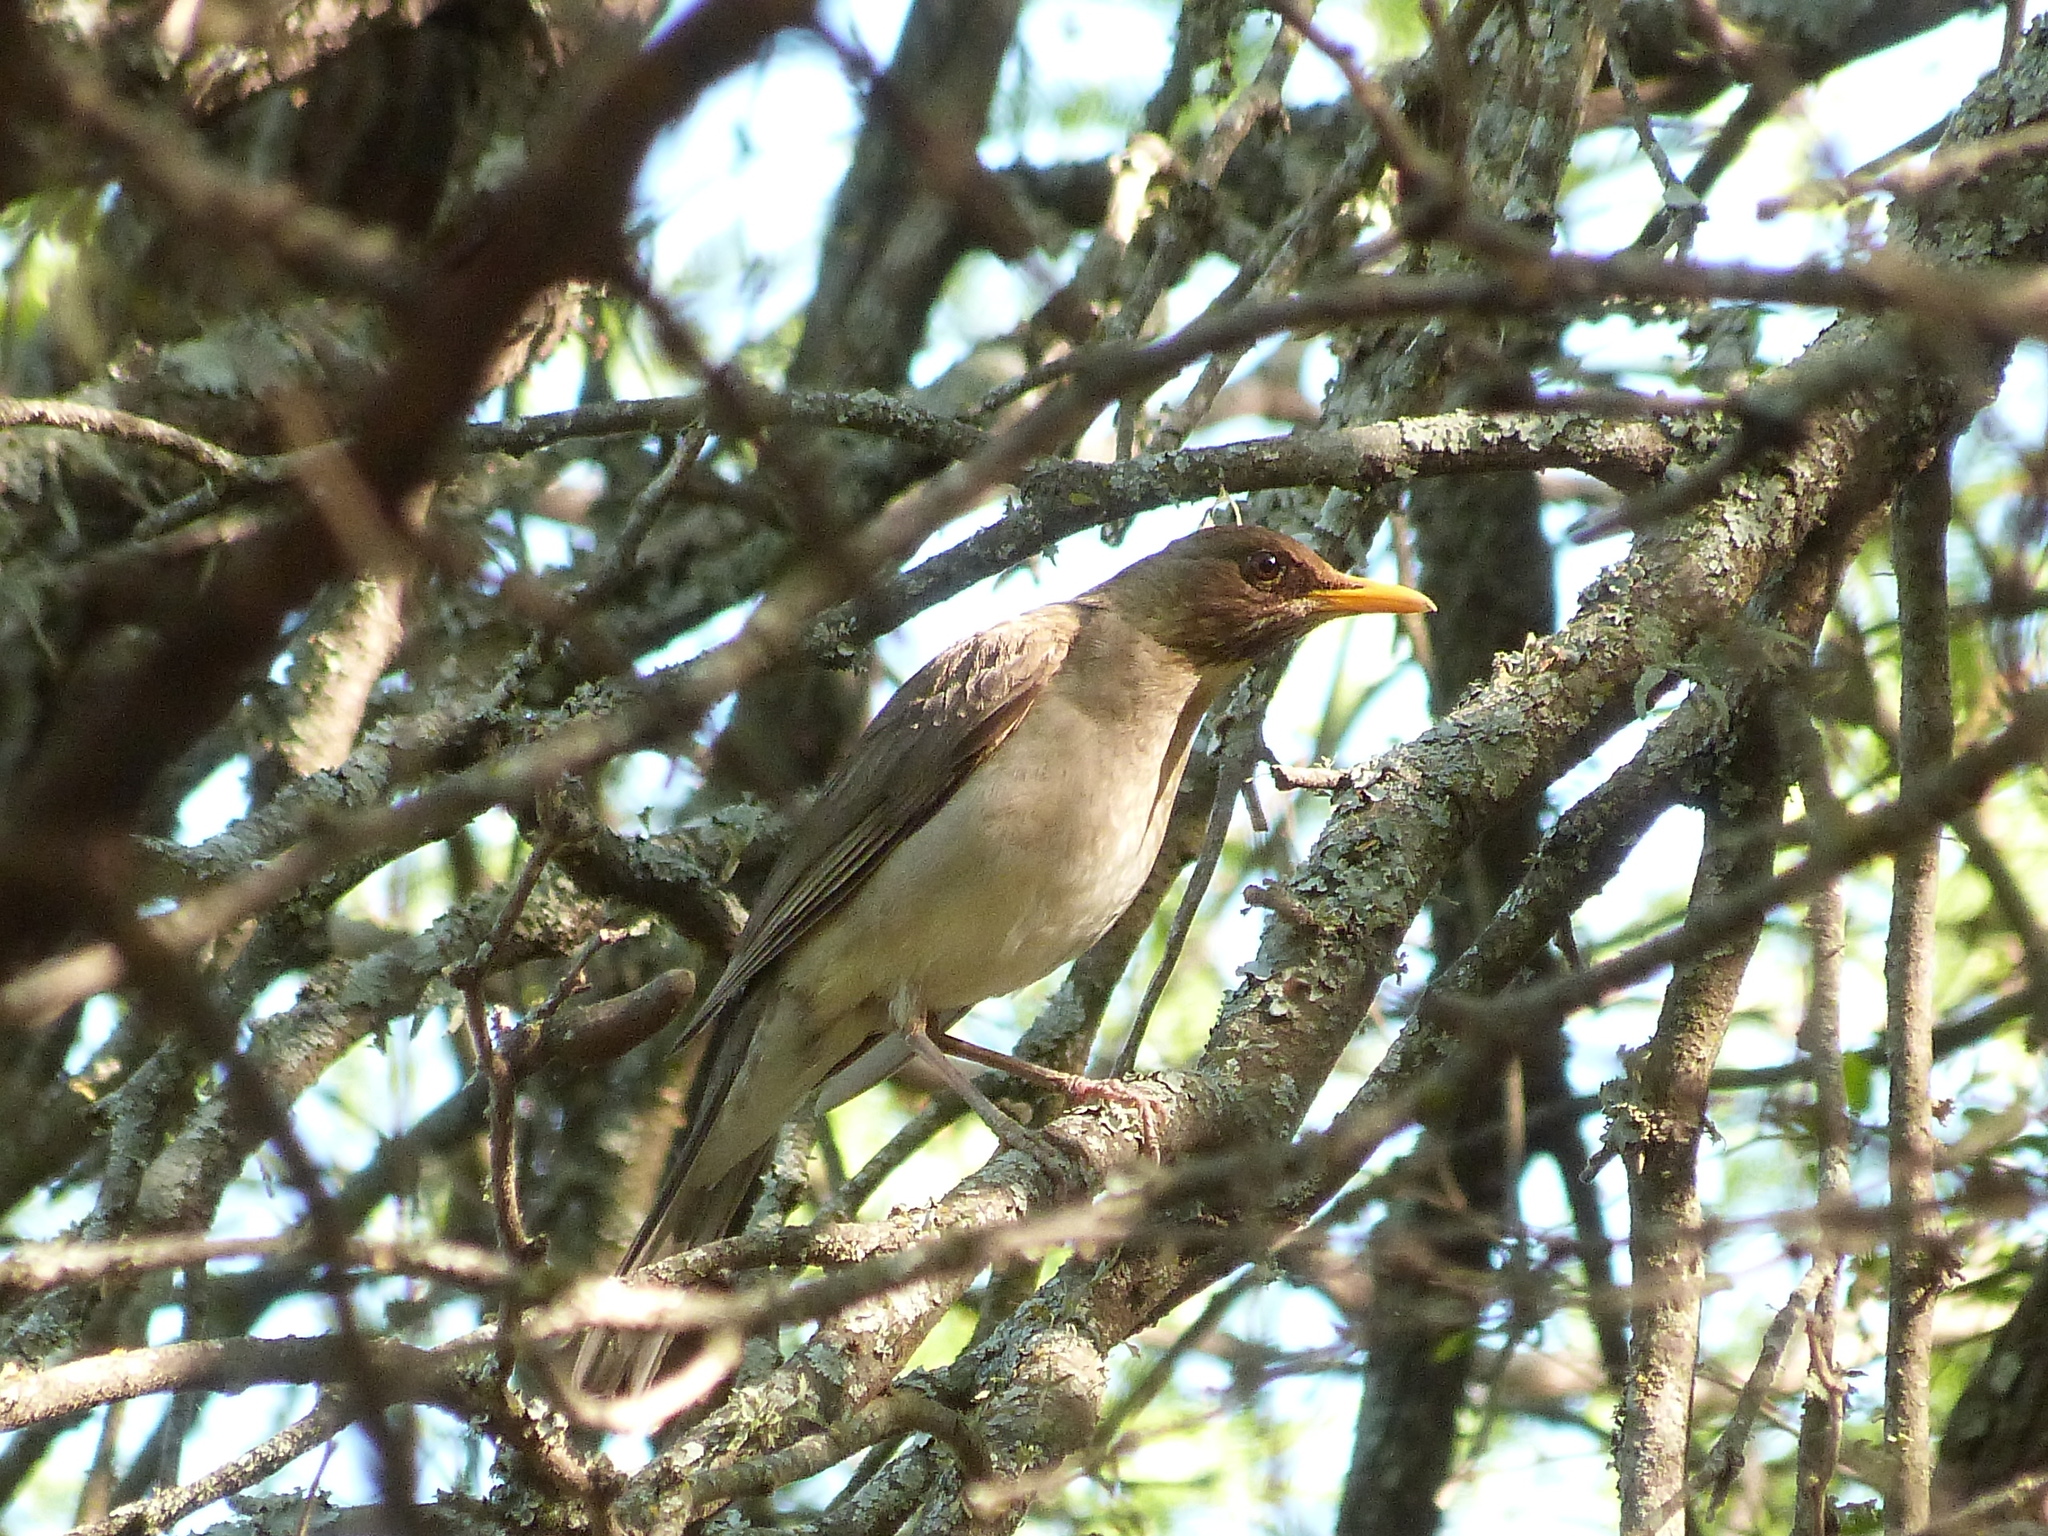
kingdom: Animalia
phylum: Chordata
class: Aves
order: Passeriformes
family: Turdidae
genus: Turdus
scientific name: Turdus amaurochalinus
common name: Creamy-bellied thrush
